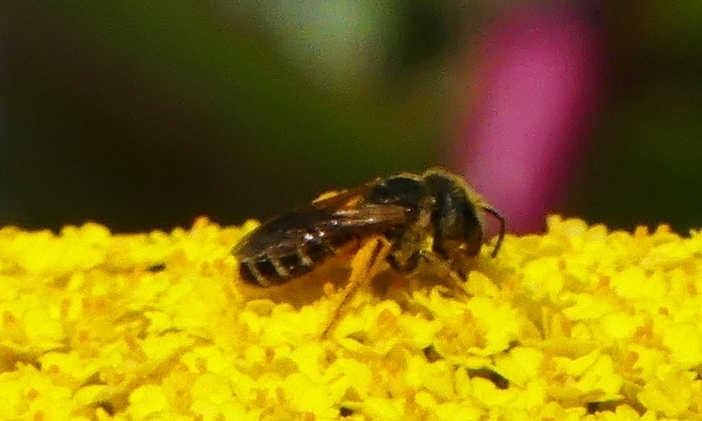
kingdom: Animalia
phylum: Arthropoda
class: Insecta
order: Hymenoptera
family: Halictidae
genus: Halictus
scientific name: Halictus ligatus
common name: Ligated furrow bee
